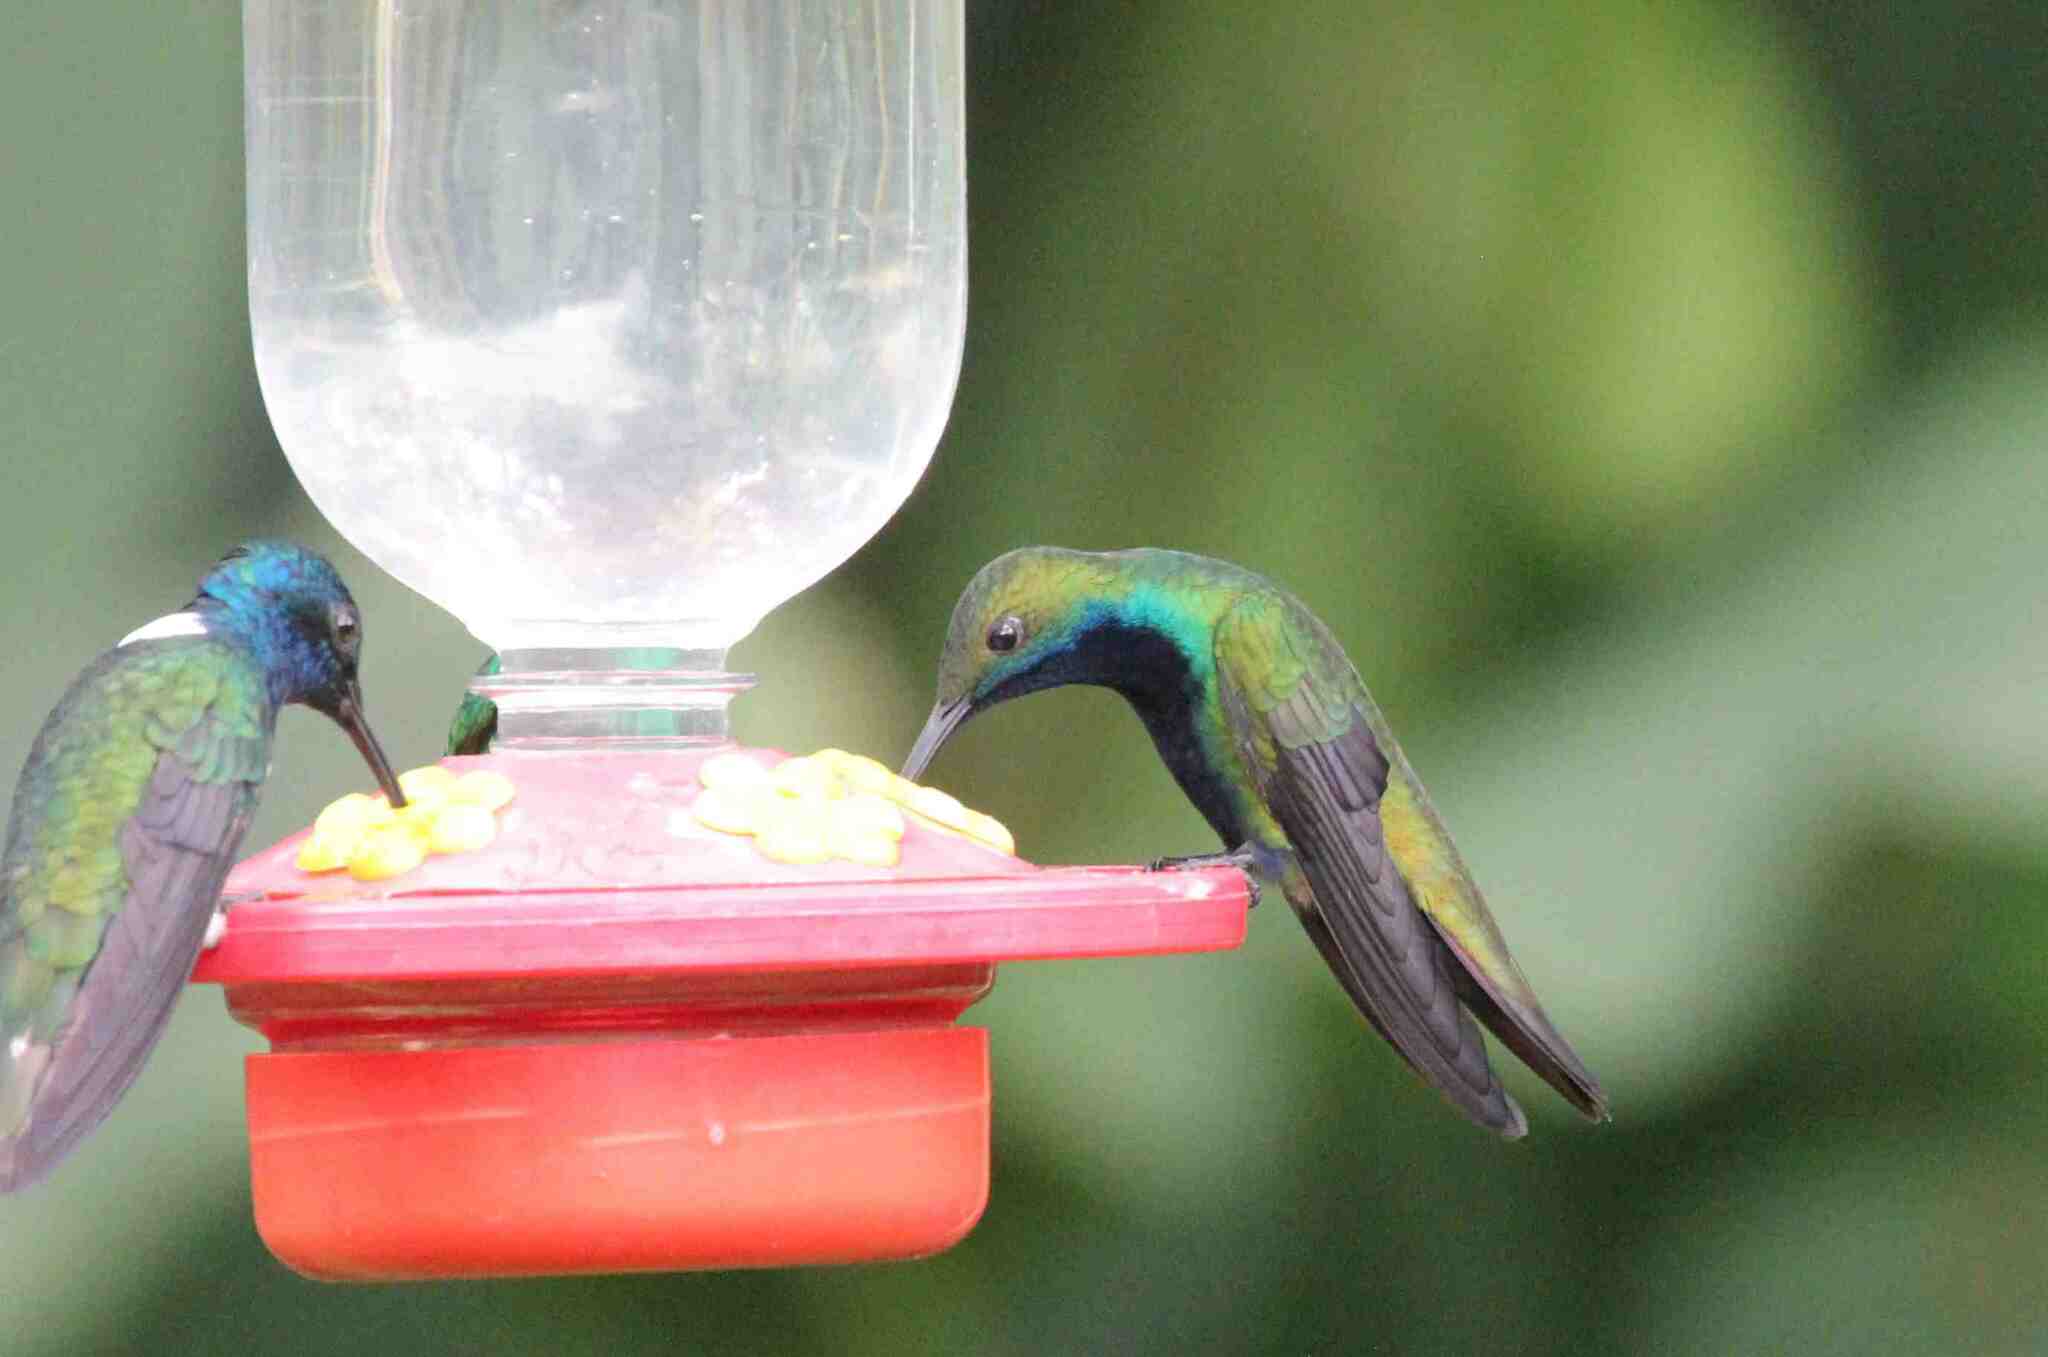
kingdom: Animalia
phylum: Chordata
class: Aves
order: Apodiformes
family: Trochilidae
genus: Anthracothorax
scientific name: Anthracothorax nigricollis
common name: Black-throated mango
